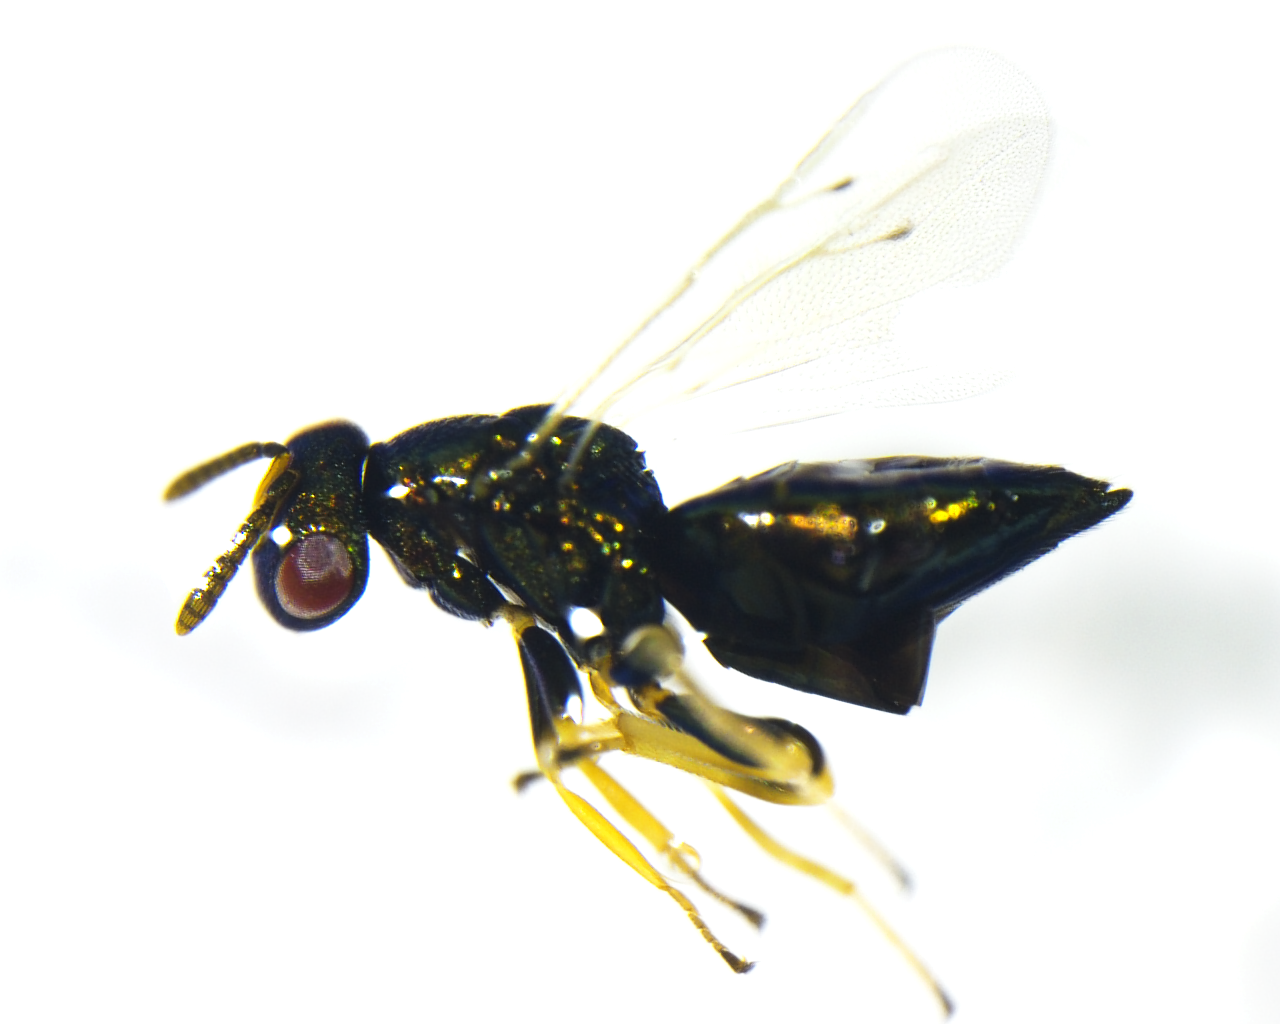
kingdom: Animalia
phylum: Arthropoda
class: Insecta
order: Hymenoptera
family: Pteromalidae
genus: Mesopolobus
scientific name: Mesopolobus incultus
